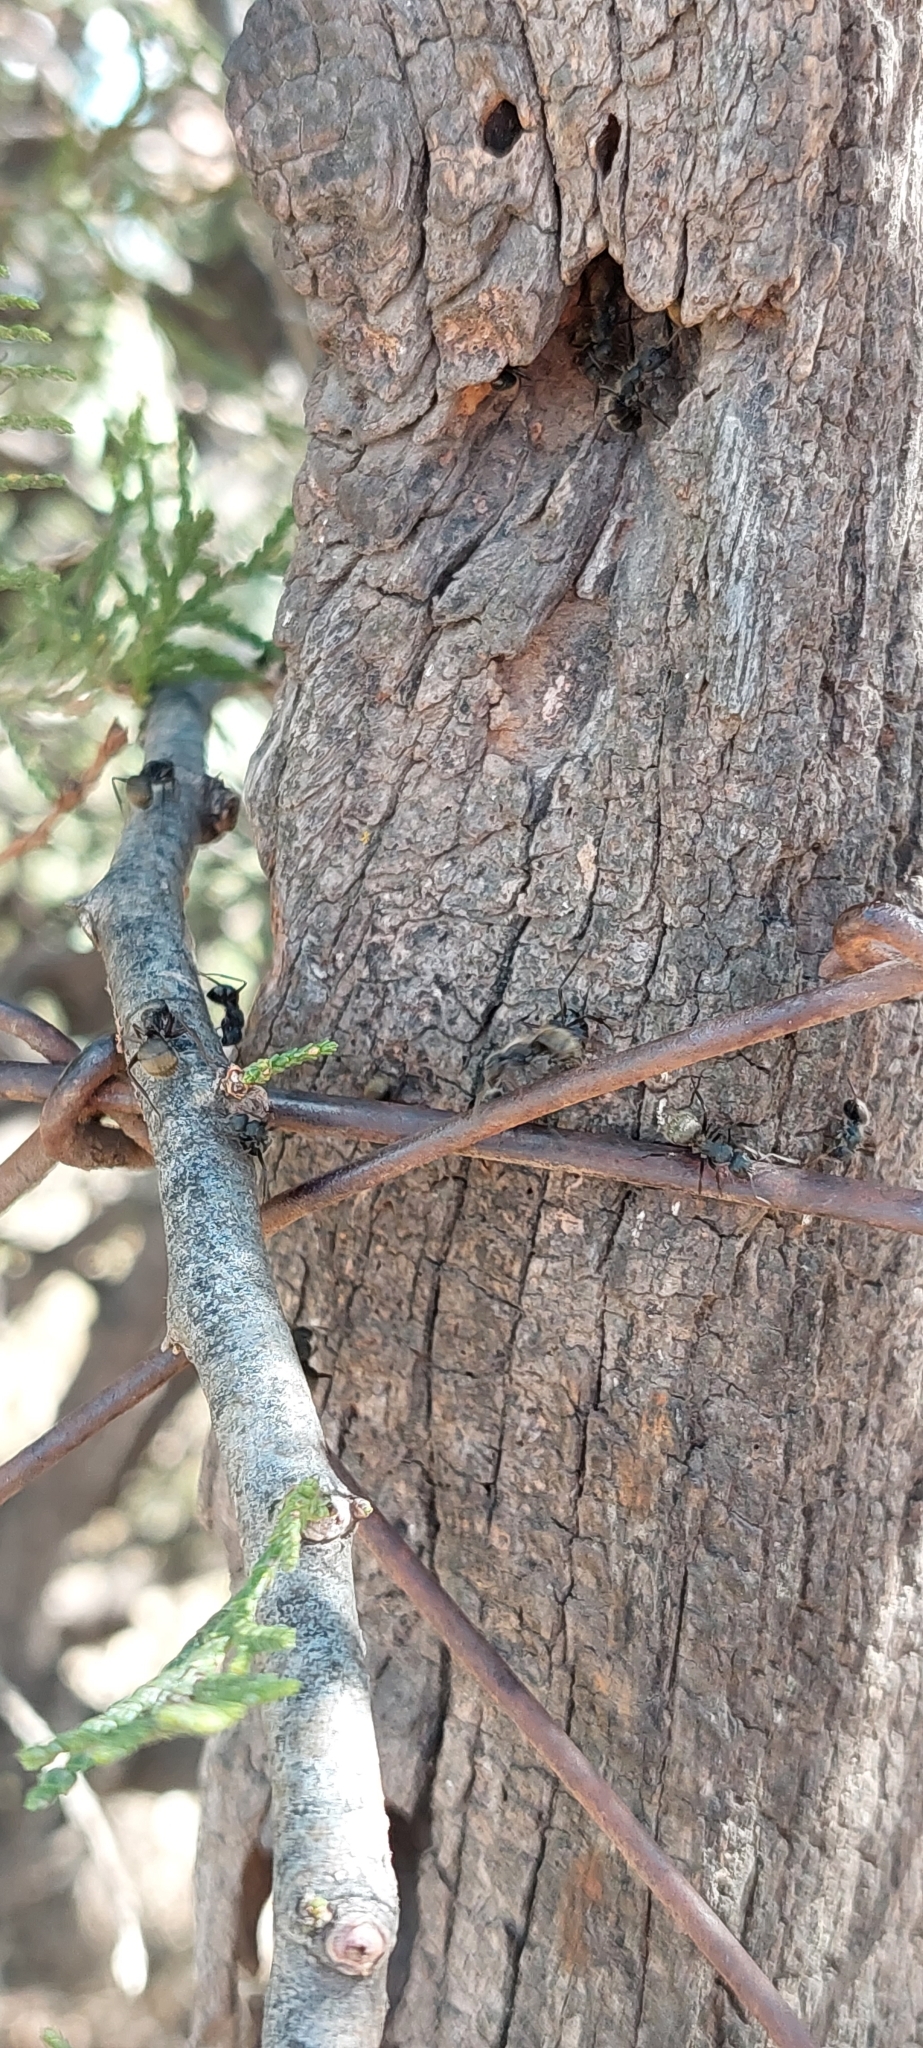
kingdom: Animalia
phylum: Arthropoda
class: Insecta
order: Hymenoptera
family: Formicidae
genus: Camponotus
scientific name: Camponotus mus
